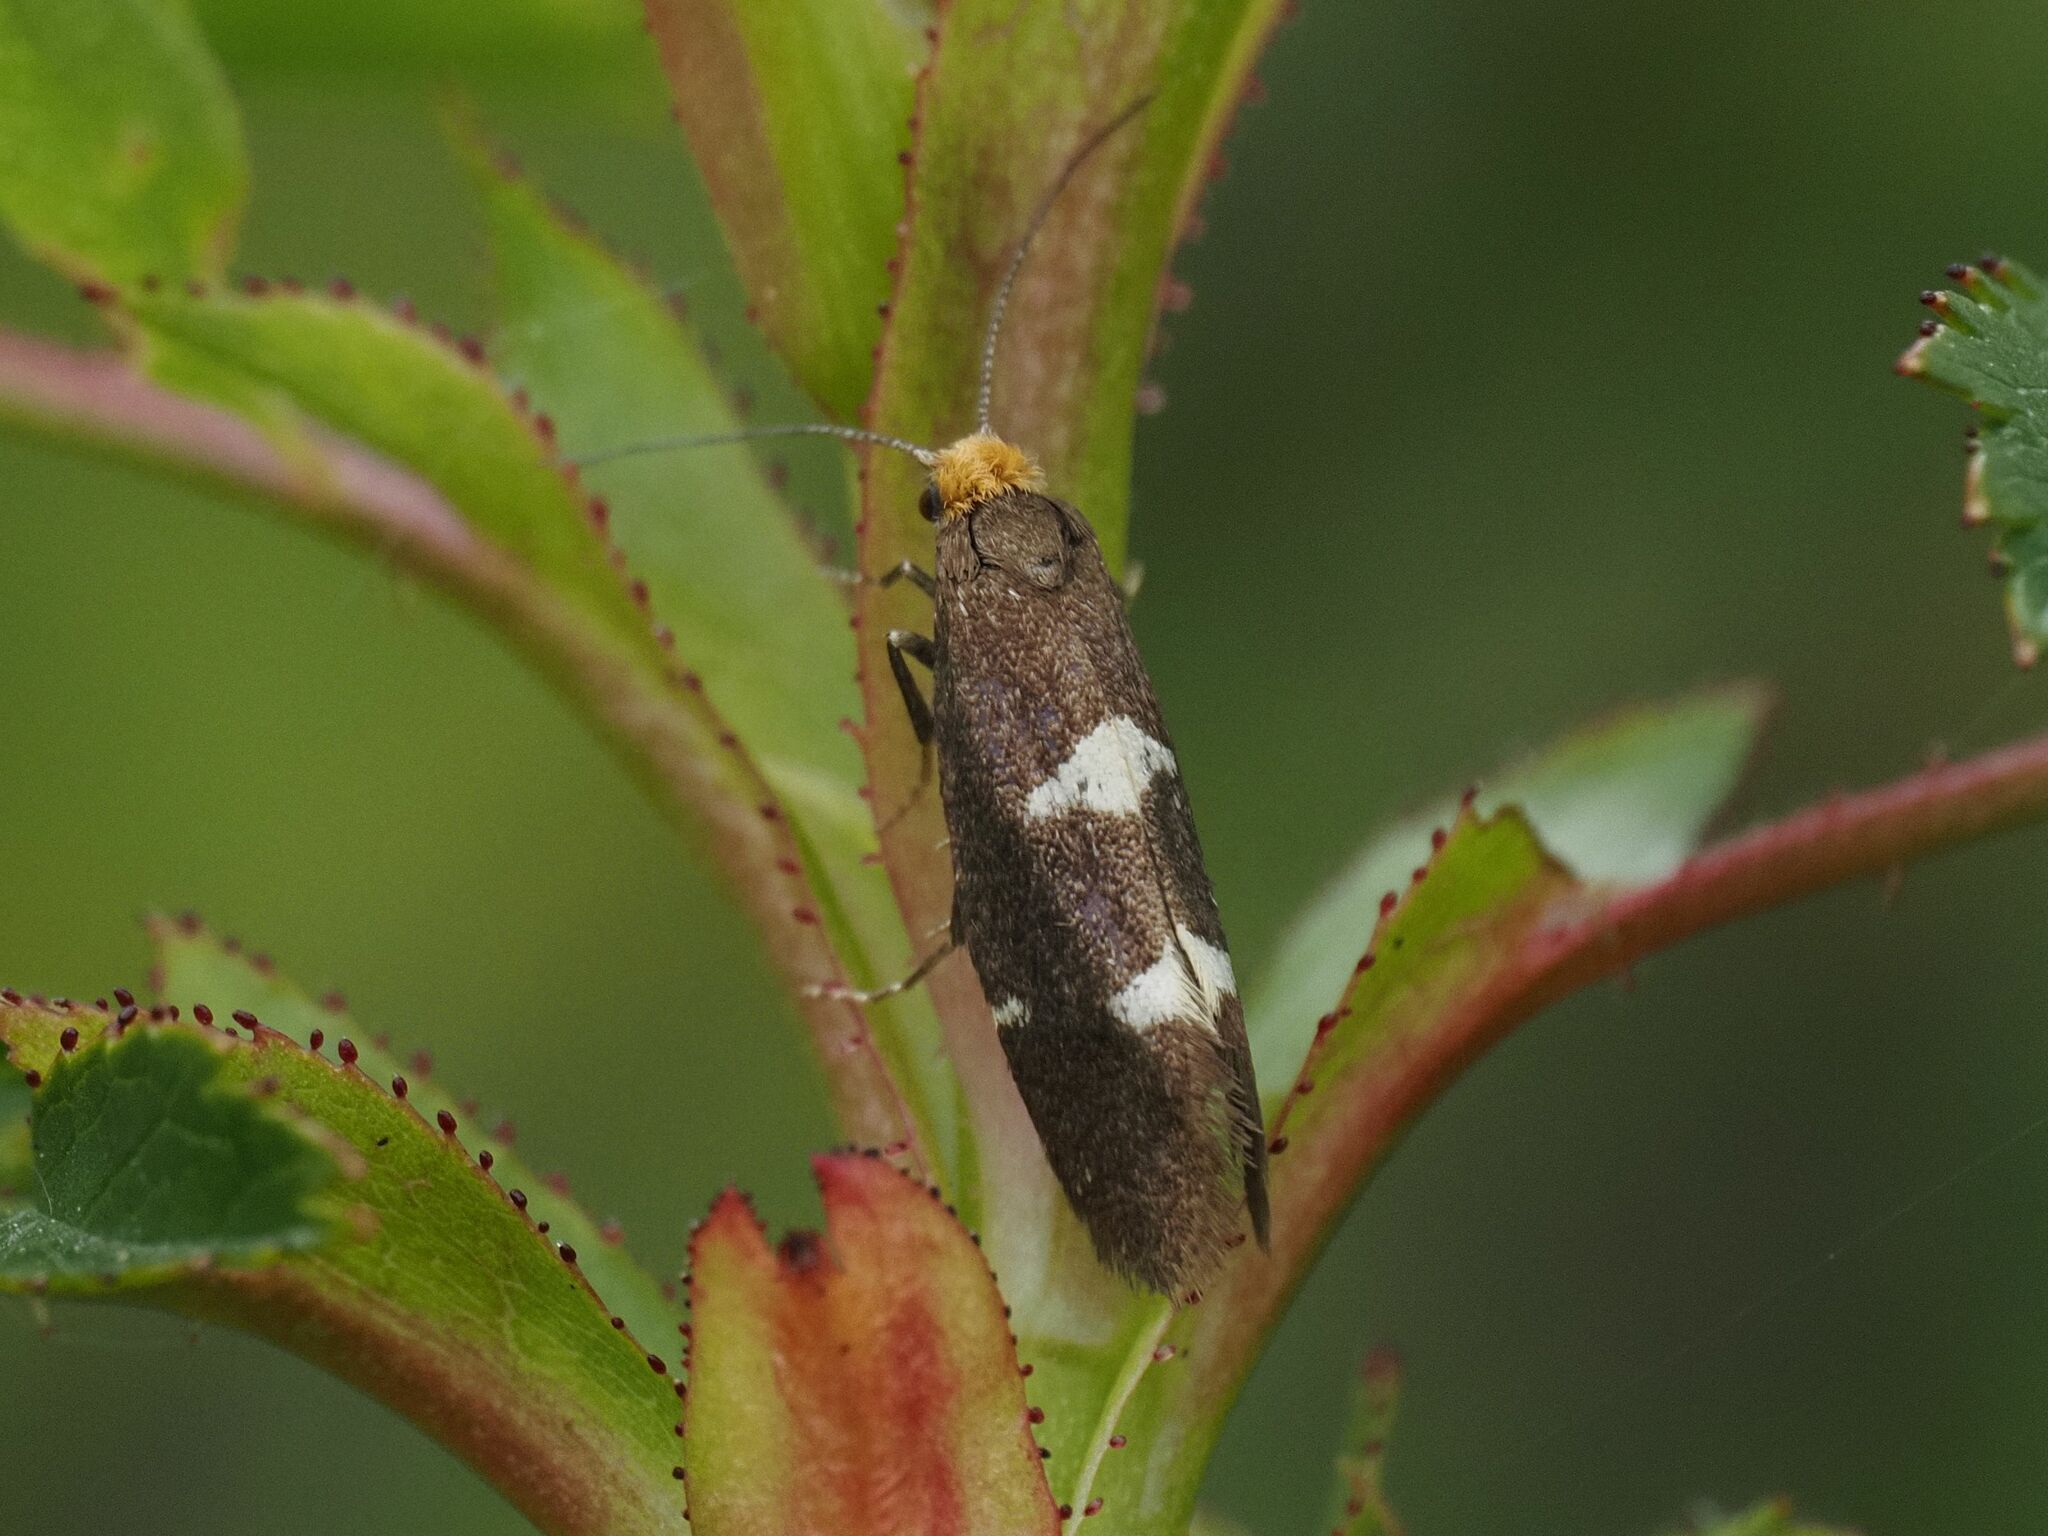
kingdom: Animalia
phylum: Arthropoda
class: Insecta
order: Lepidoptera
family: Incurvariidae
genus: Incurvaria
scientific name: Incurvaria masculella
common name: Feathered leaf-cutter
